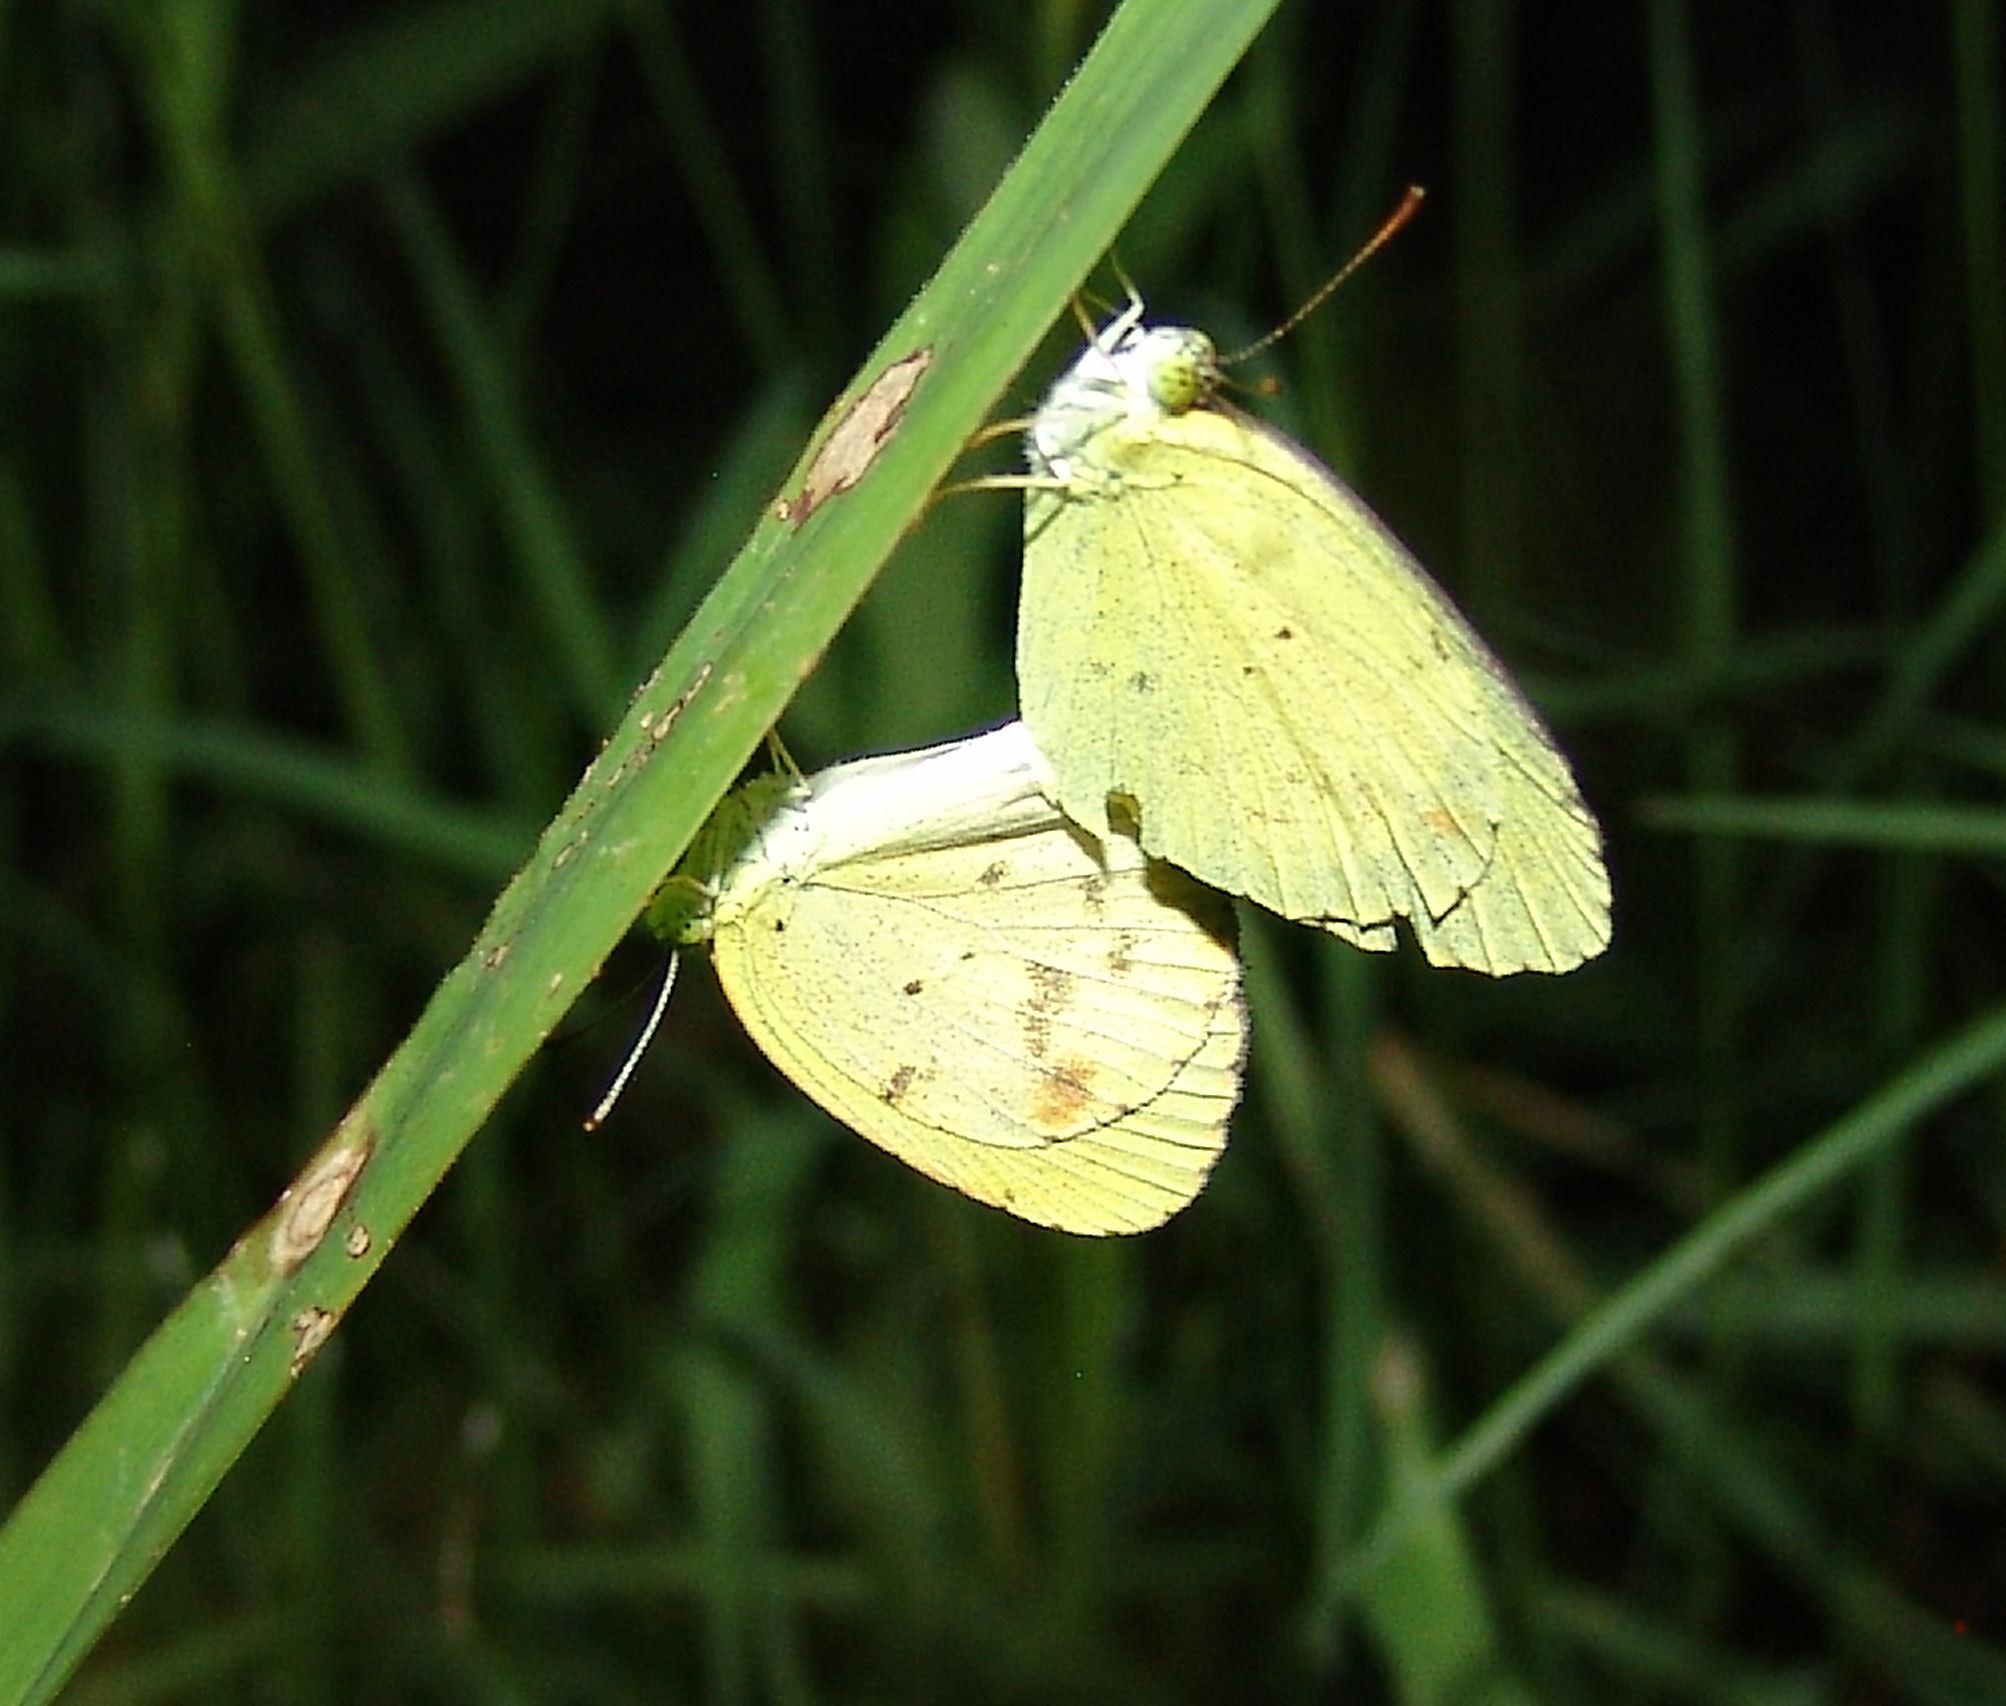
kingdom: Animalia
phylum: Arthropoda
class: Insecta
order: Lepidoptera
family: Pieridae
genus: Pyrisitia
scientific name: Pyrisitia lisa
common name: Little yellow
